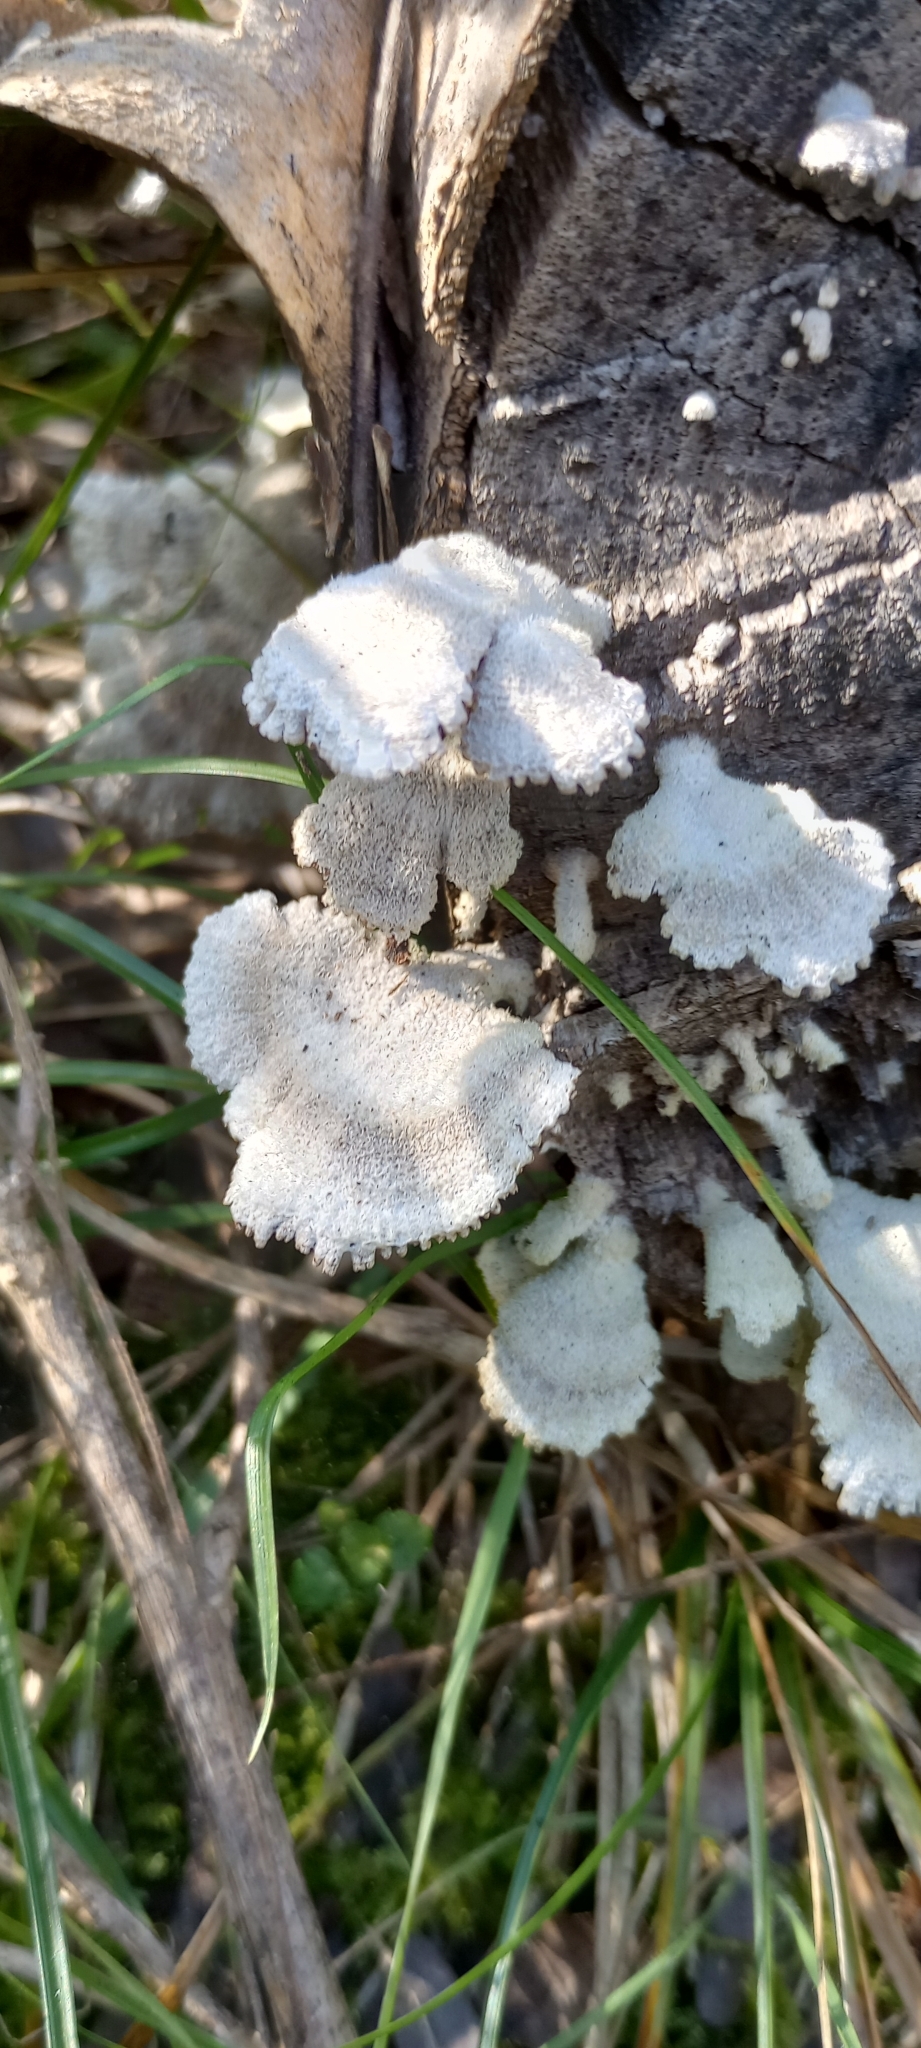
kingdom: Fungi
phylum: Basidiomycota
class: Agaricomycetes
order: Agaricales
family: Schizophyllaceae
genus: Schizophyllum
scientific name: Schizophyllum commune
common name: Common porecrust
